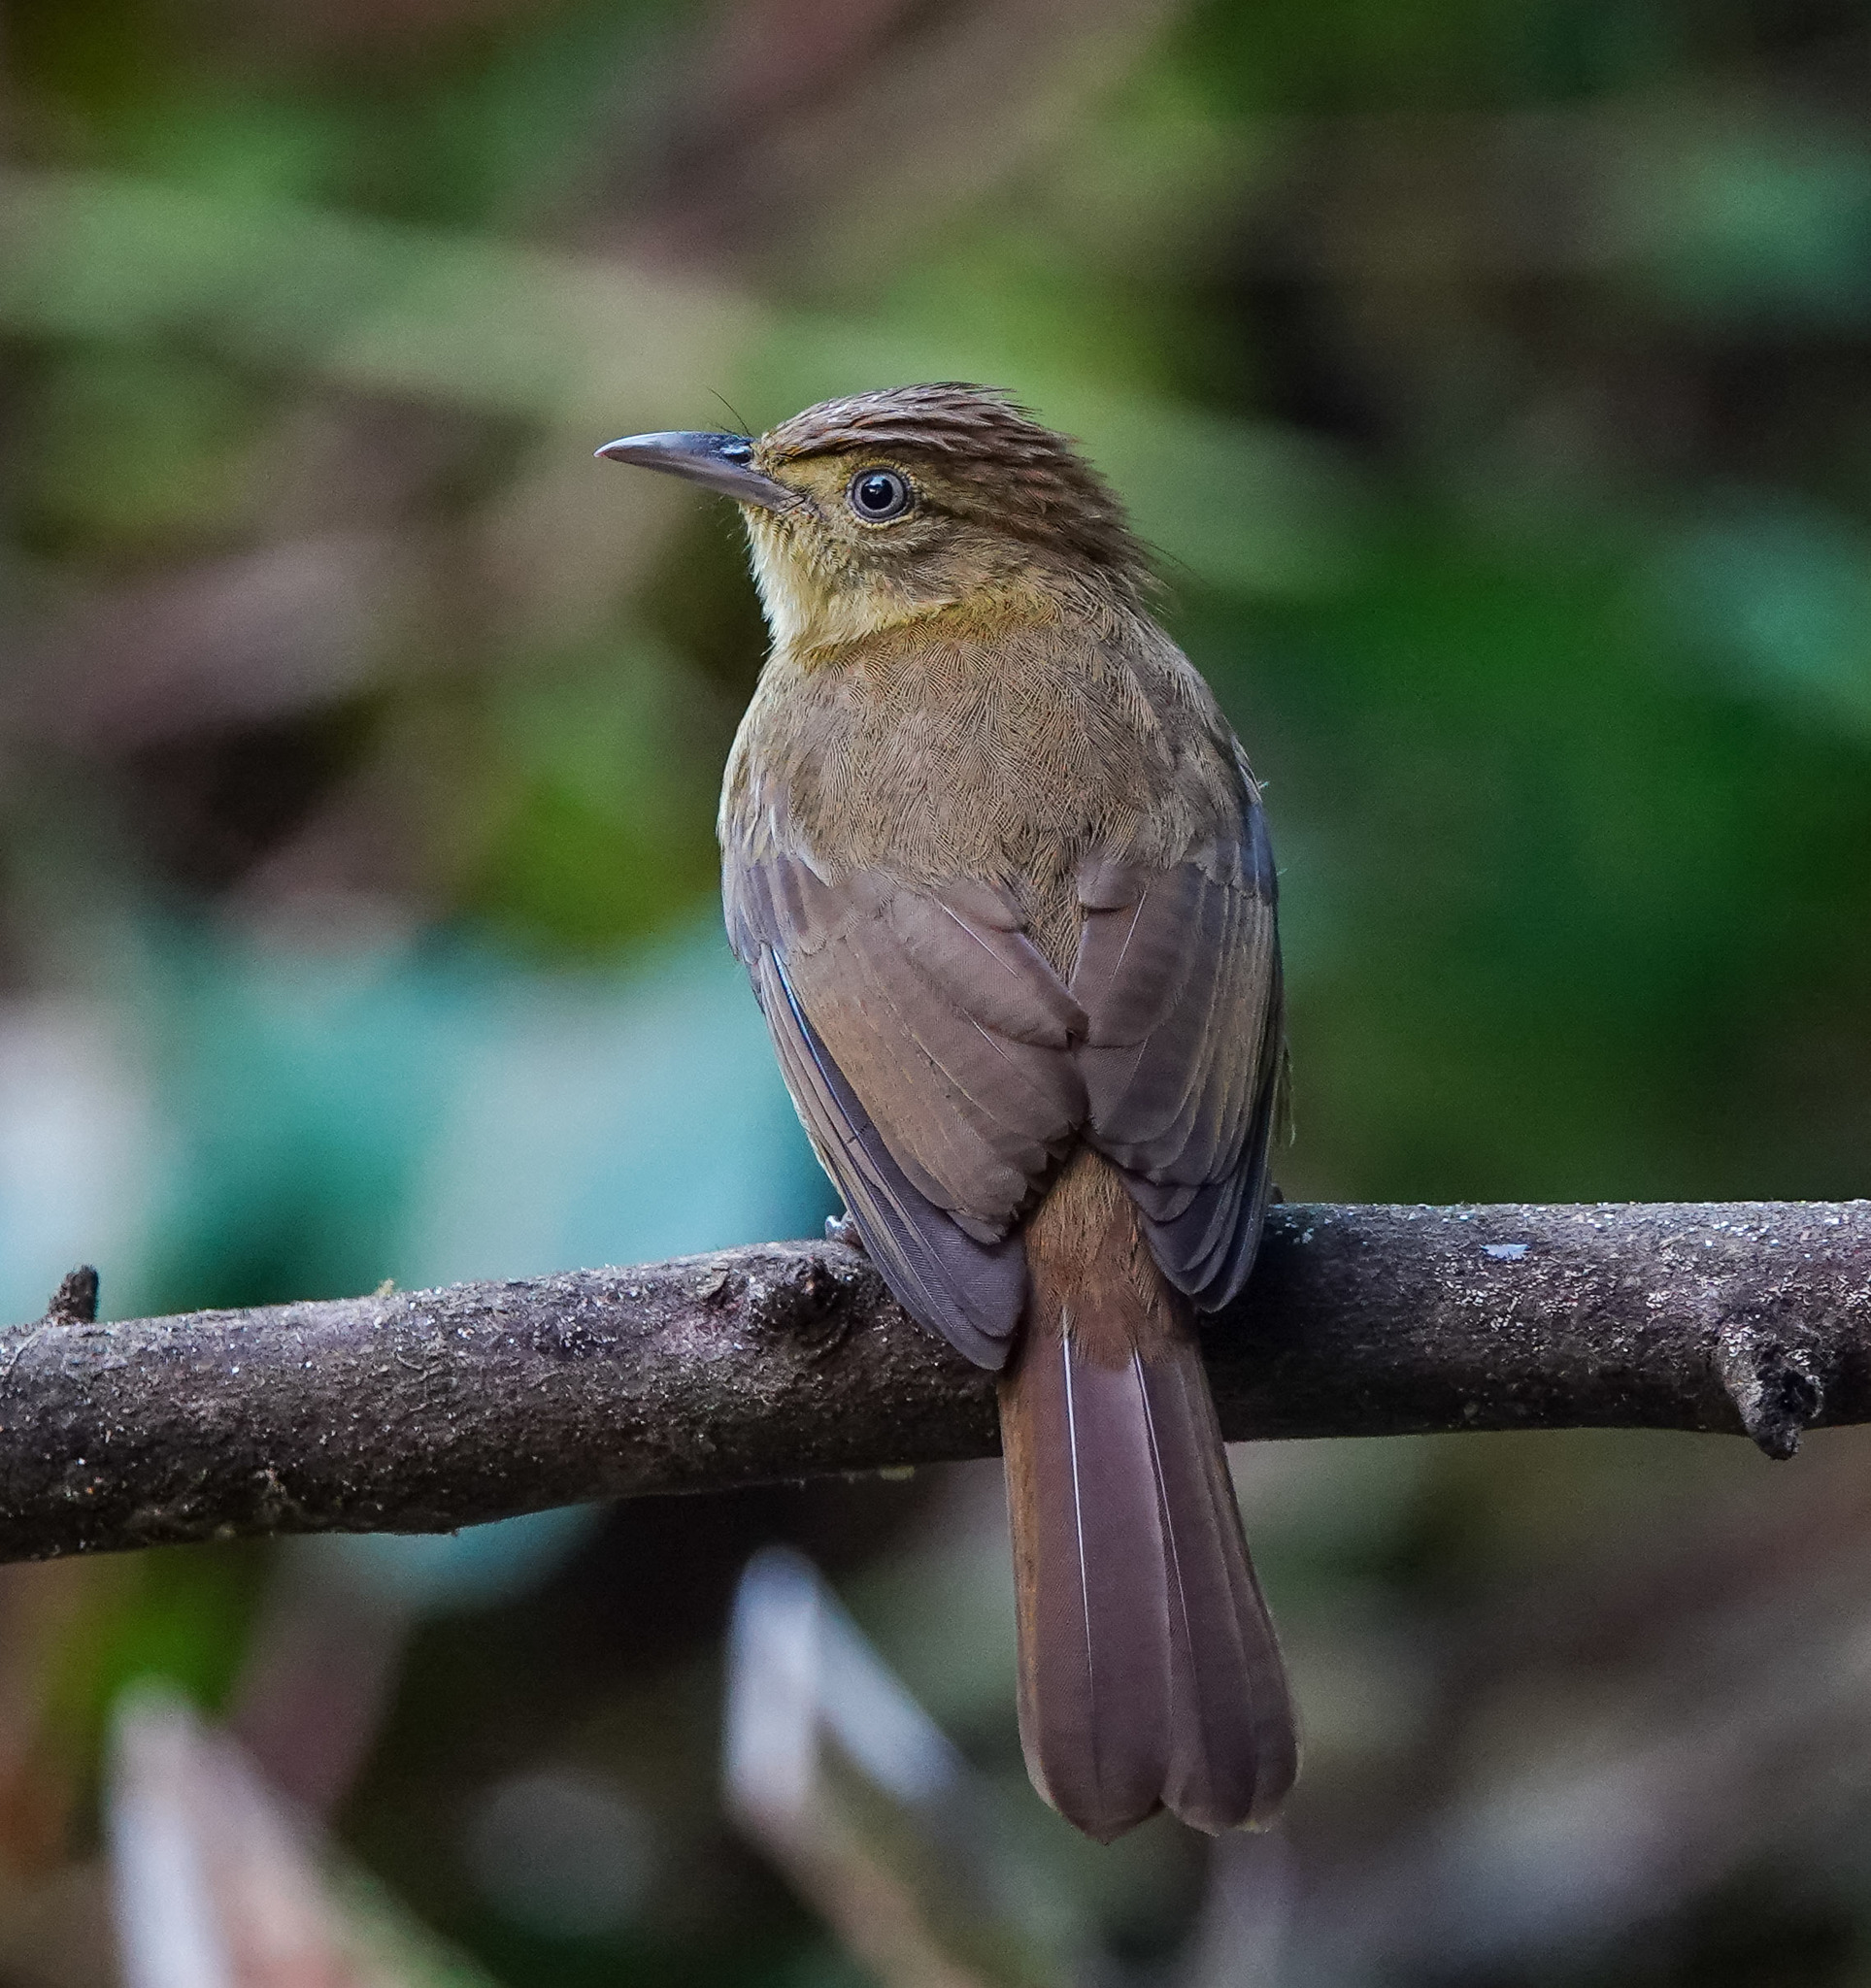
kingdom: Animalia
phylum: Chordata
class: Aves
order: Passeriformes
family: Pycnonotidae
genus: Iole
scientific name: Iole virescens
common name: Olive bulbul
